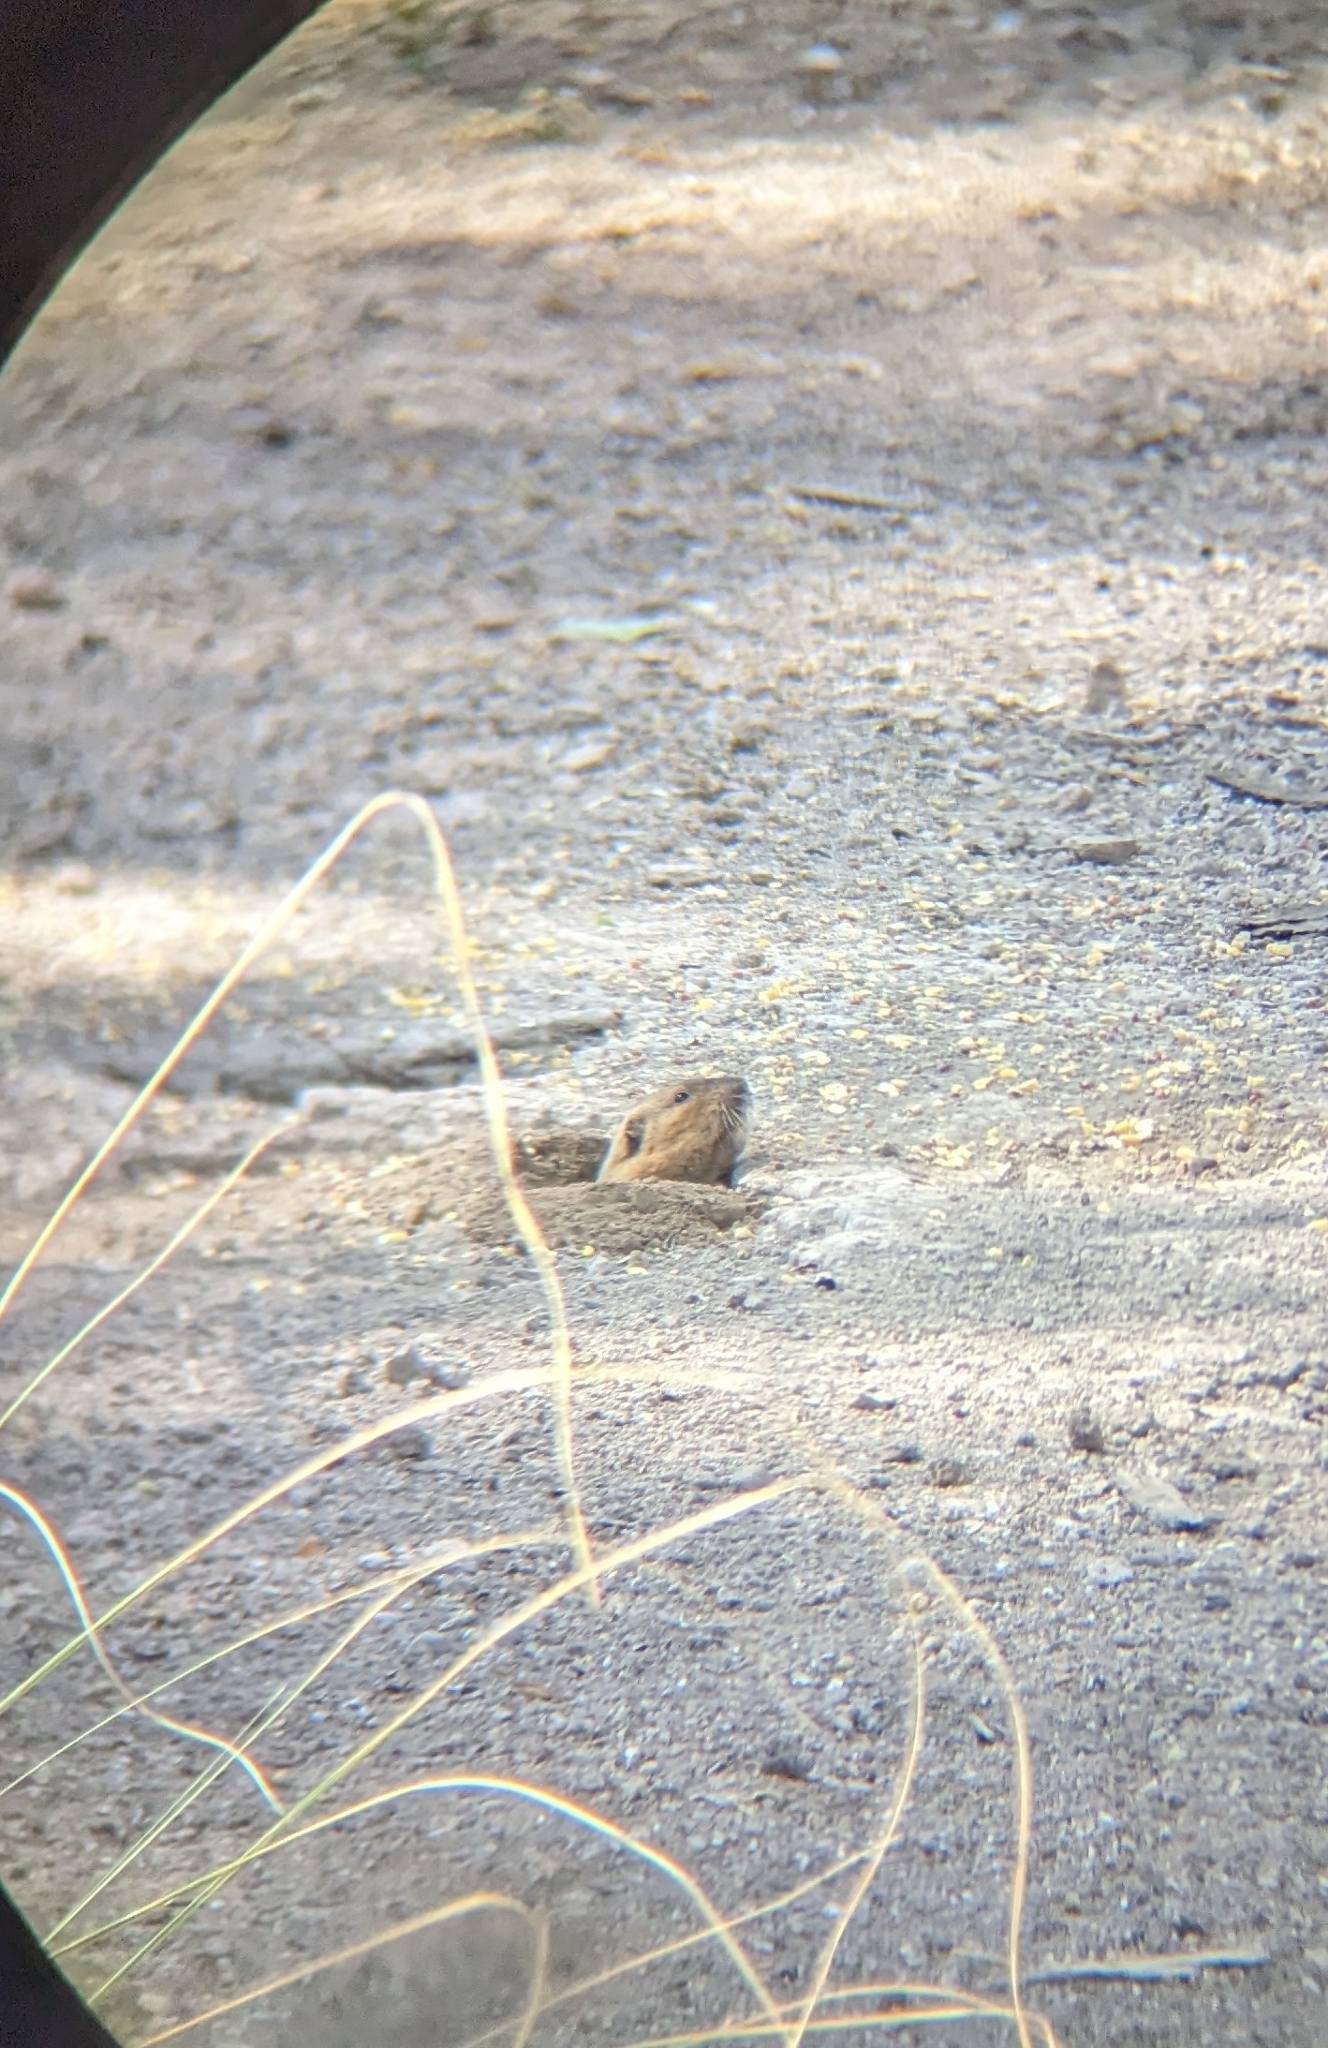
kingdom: Animalia
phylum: Chordata
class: Mammalia
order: Rodentia
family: Geomyidae
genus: Thomomys
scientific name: Thomomys bottae
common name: Botta's pocket gopher
